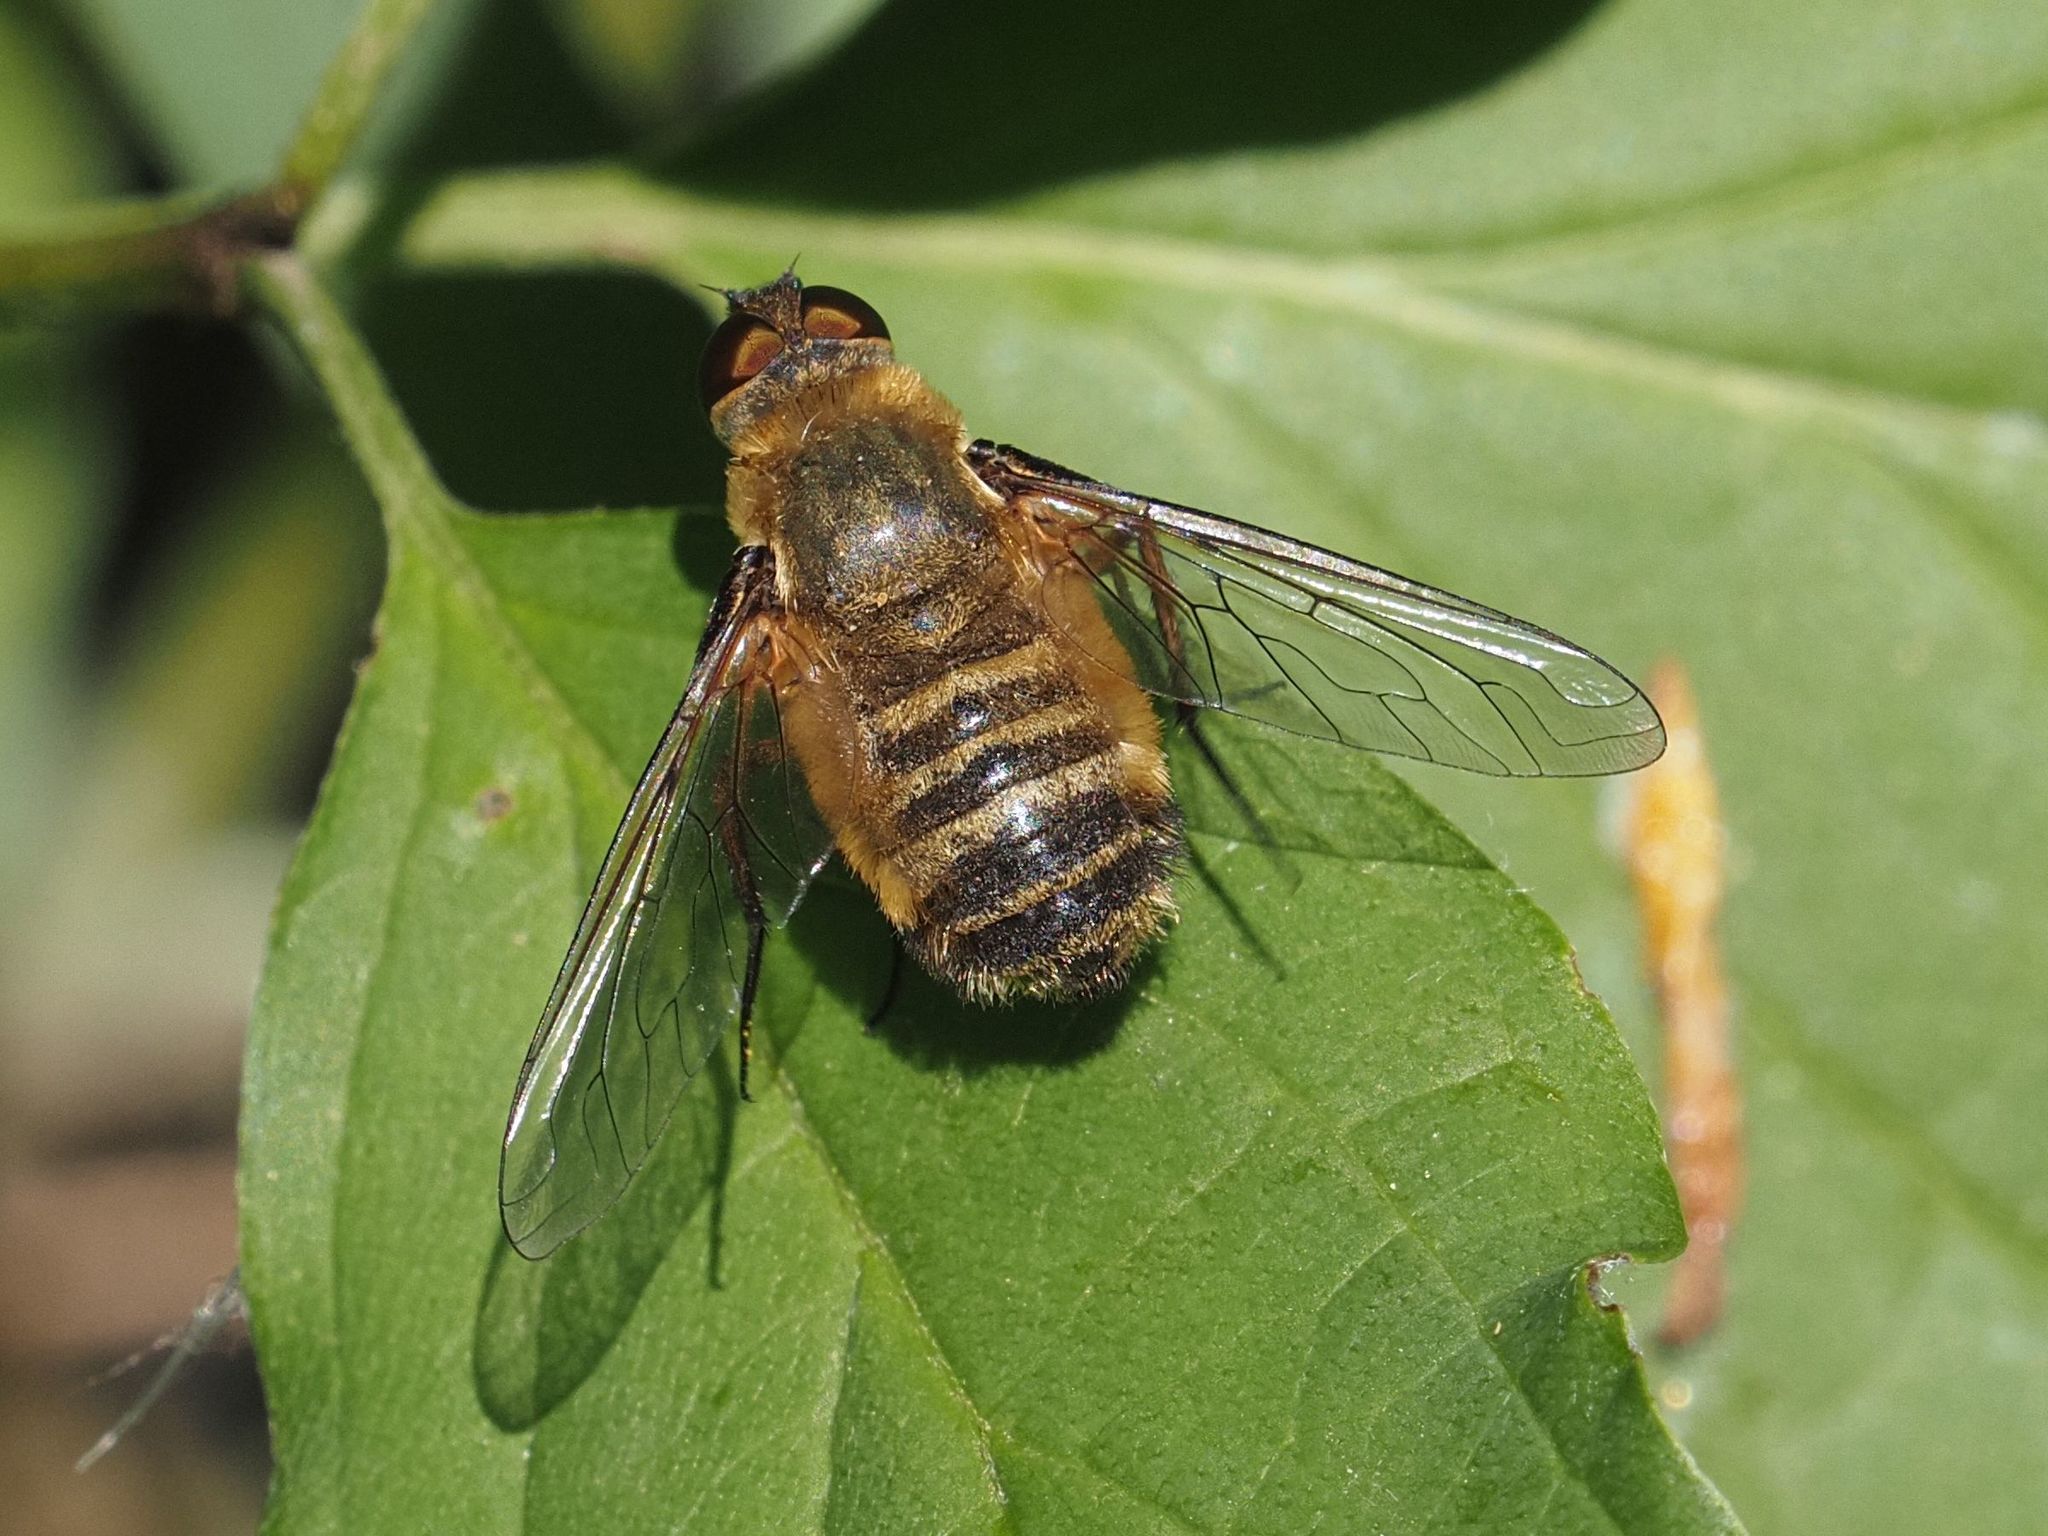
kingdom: Animalia
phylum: Arthropoda
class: Insecta
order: Diptera
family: Bombyliidae
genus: Villa
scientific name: Villa hottentotta
